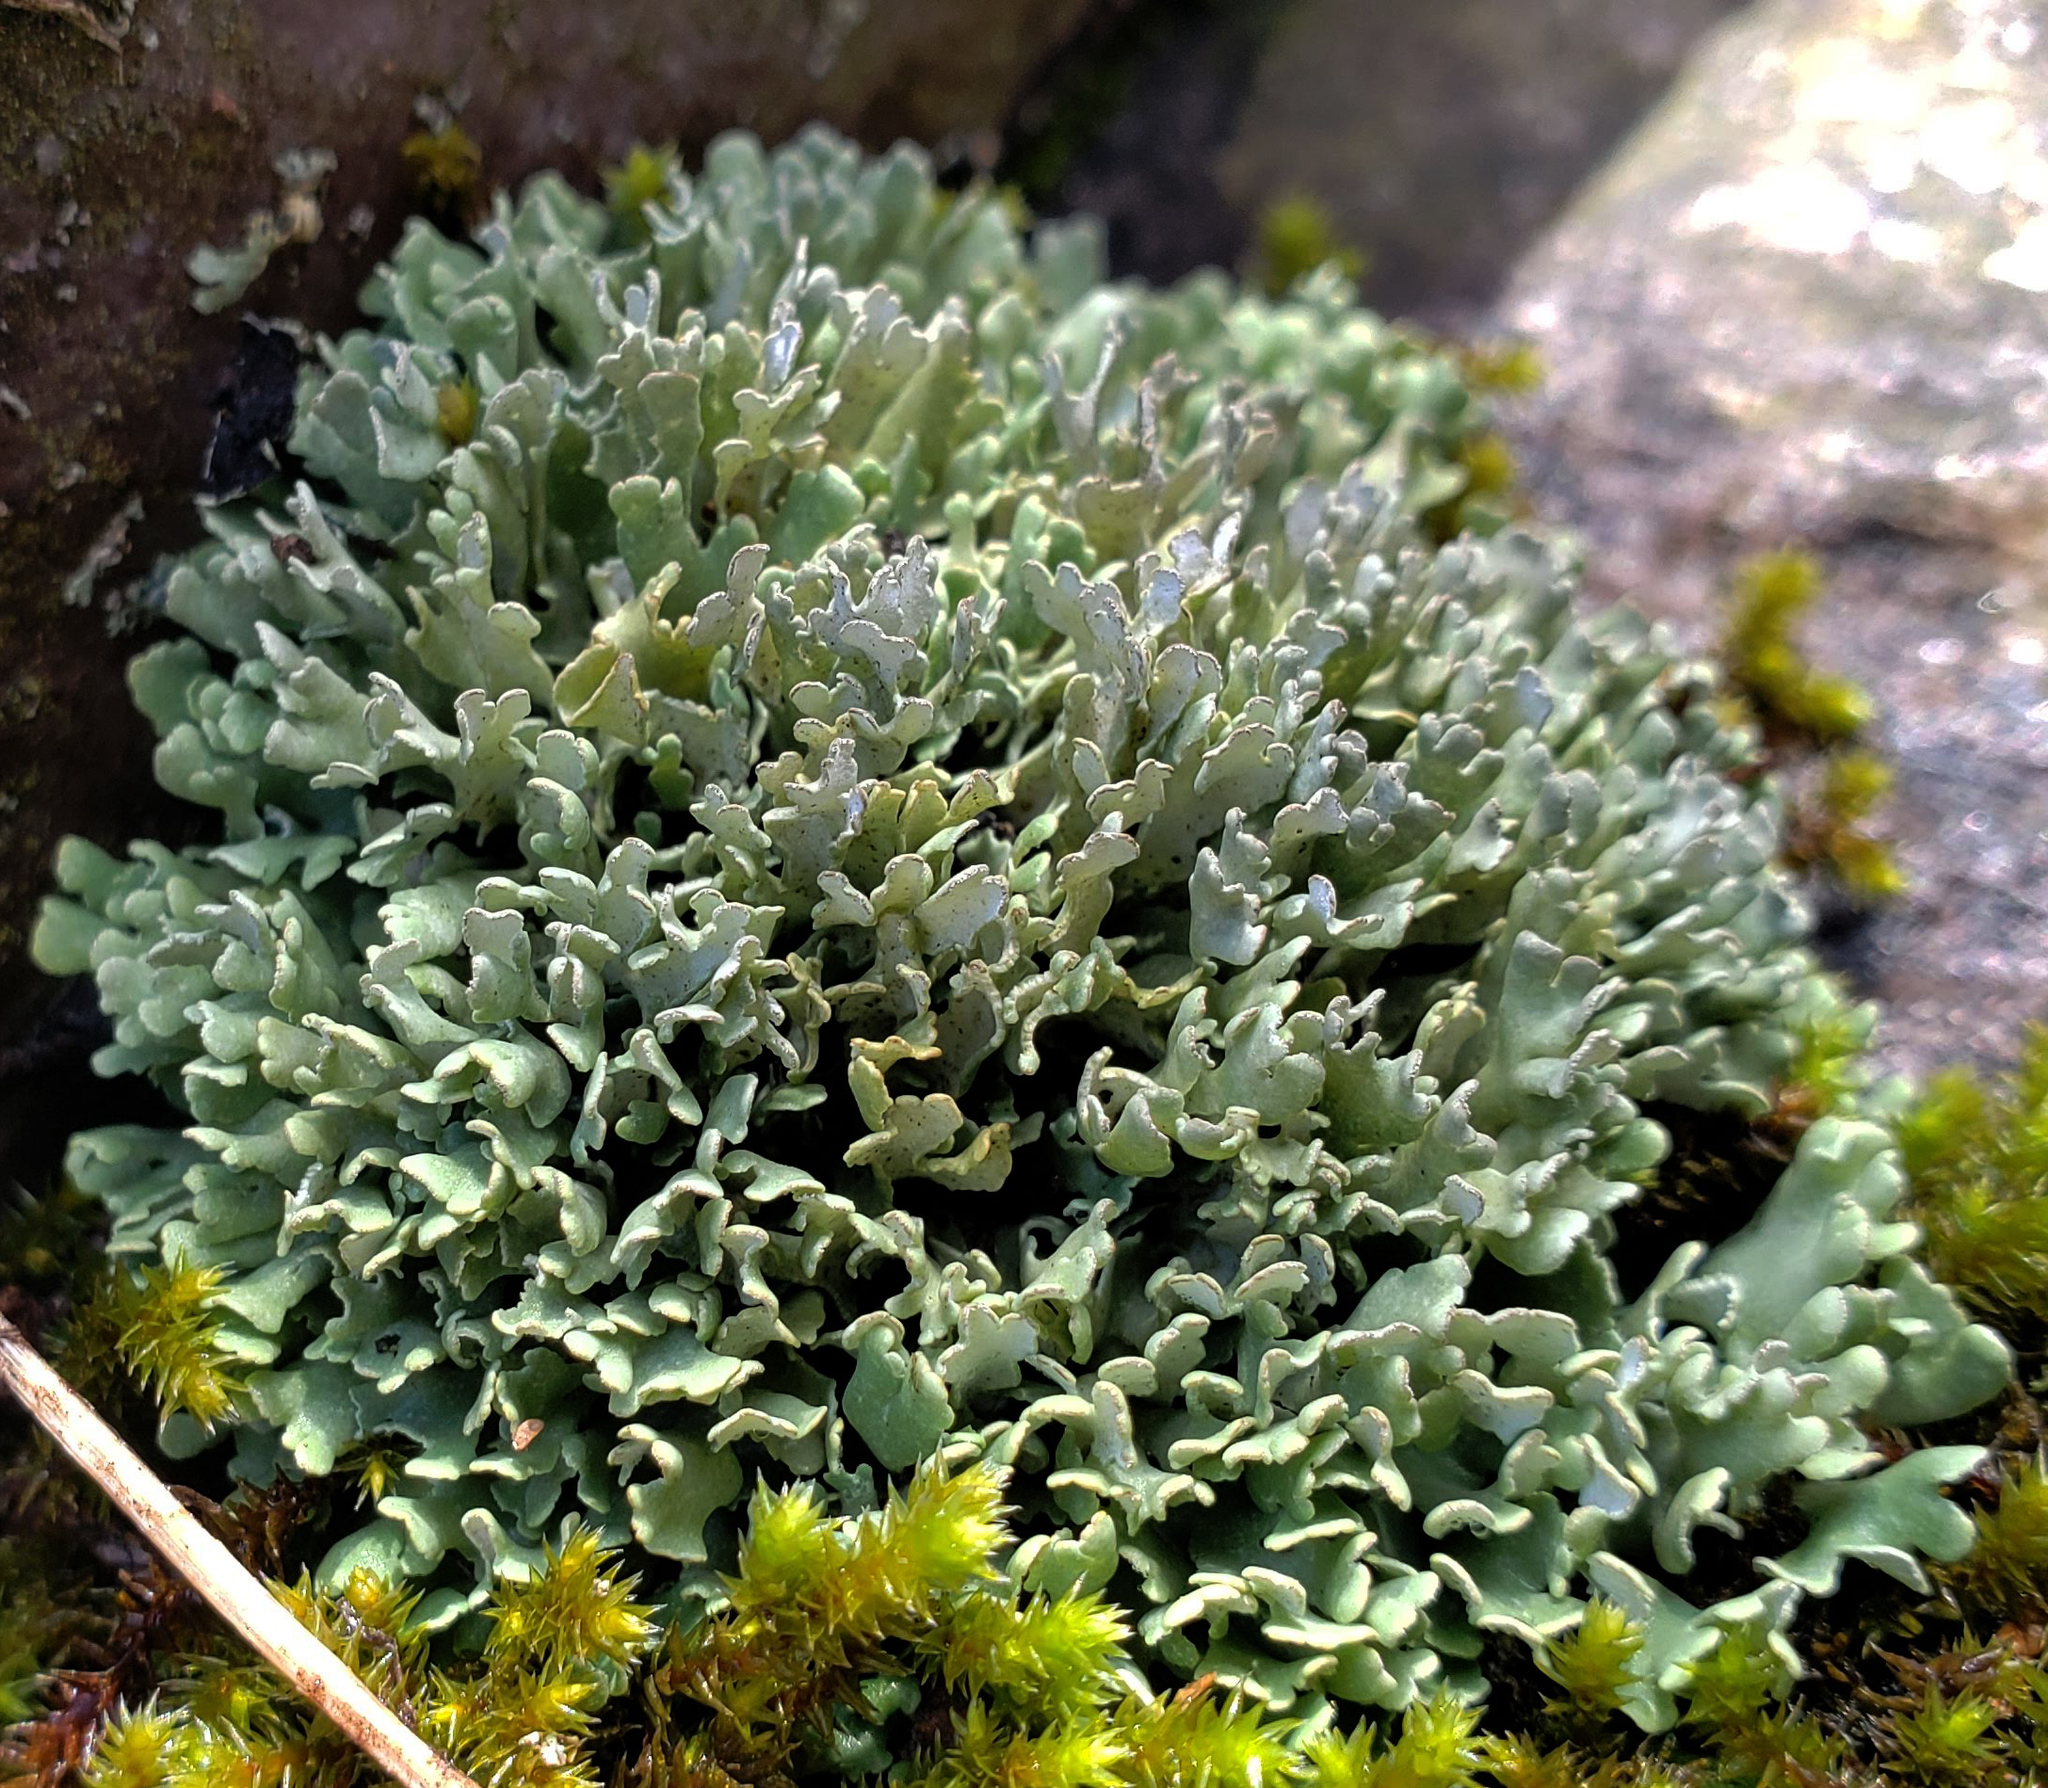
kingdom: Fungi
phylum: Ascomycota
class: Lecanoromycetes
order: Lecanorales
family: Cladoniaceae
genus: Cladonia
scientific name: Cladonia apodocarpa
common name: Stalkless cladonia
